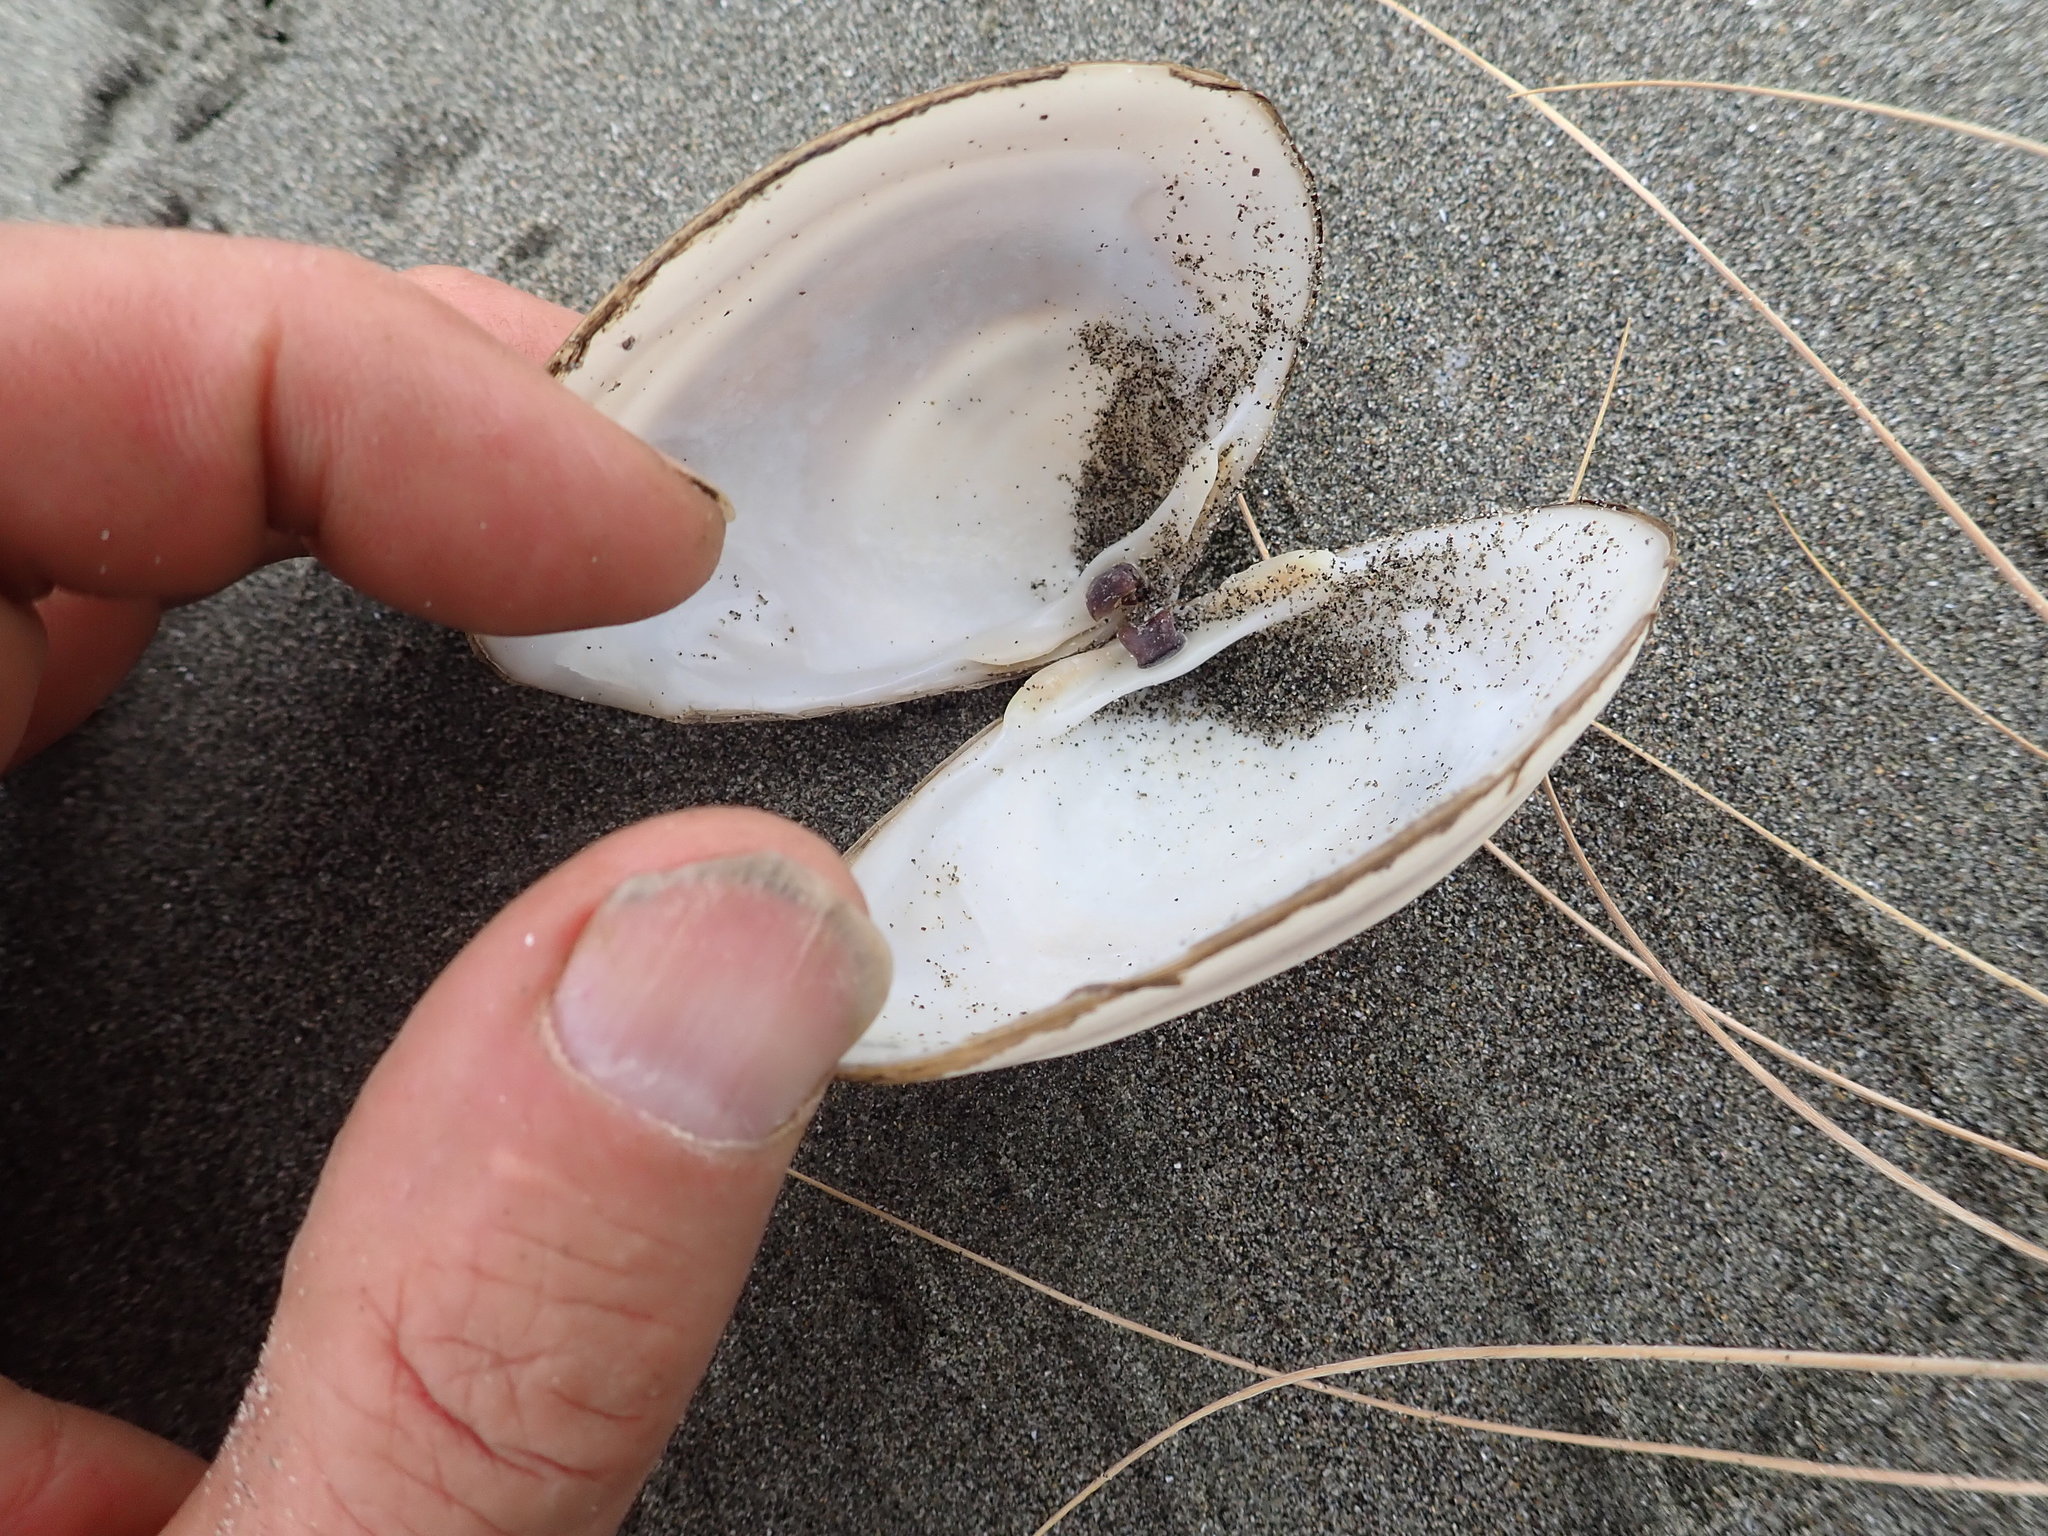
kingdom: Animalia
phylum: Mollusca
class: Bivalvia
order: Venerida
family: Mactridae
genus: Spisula
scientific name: Spisula discors
